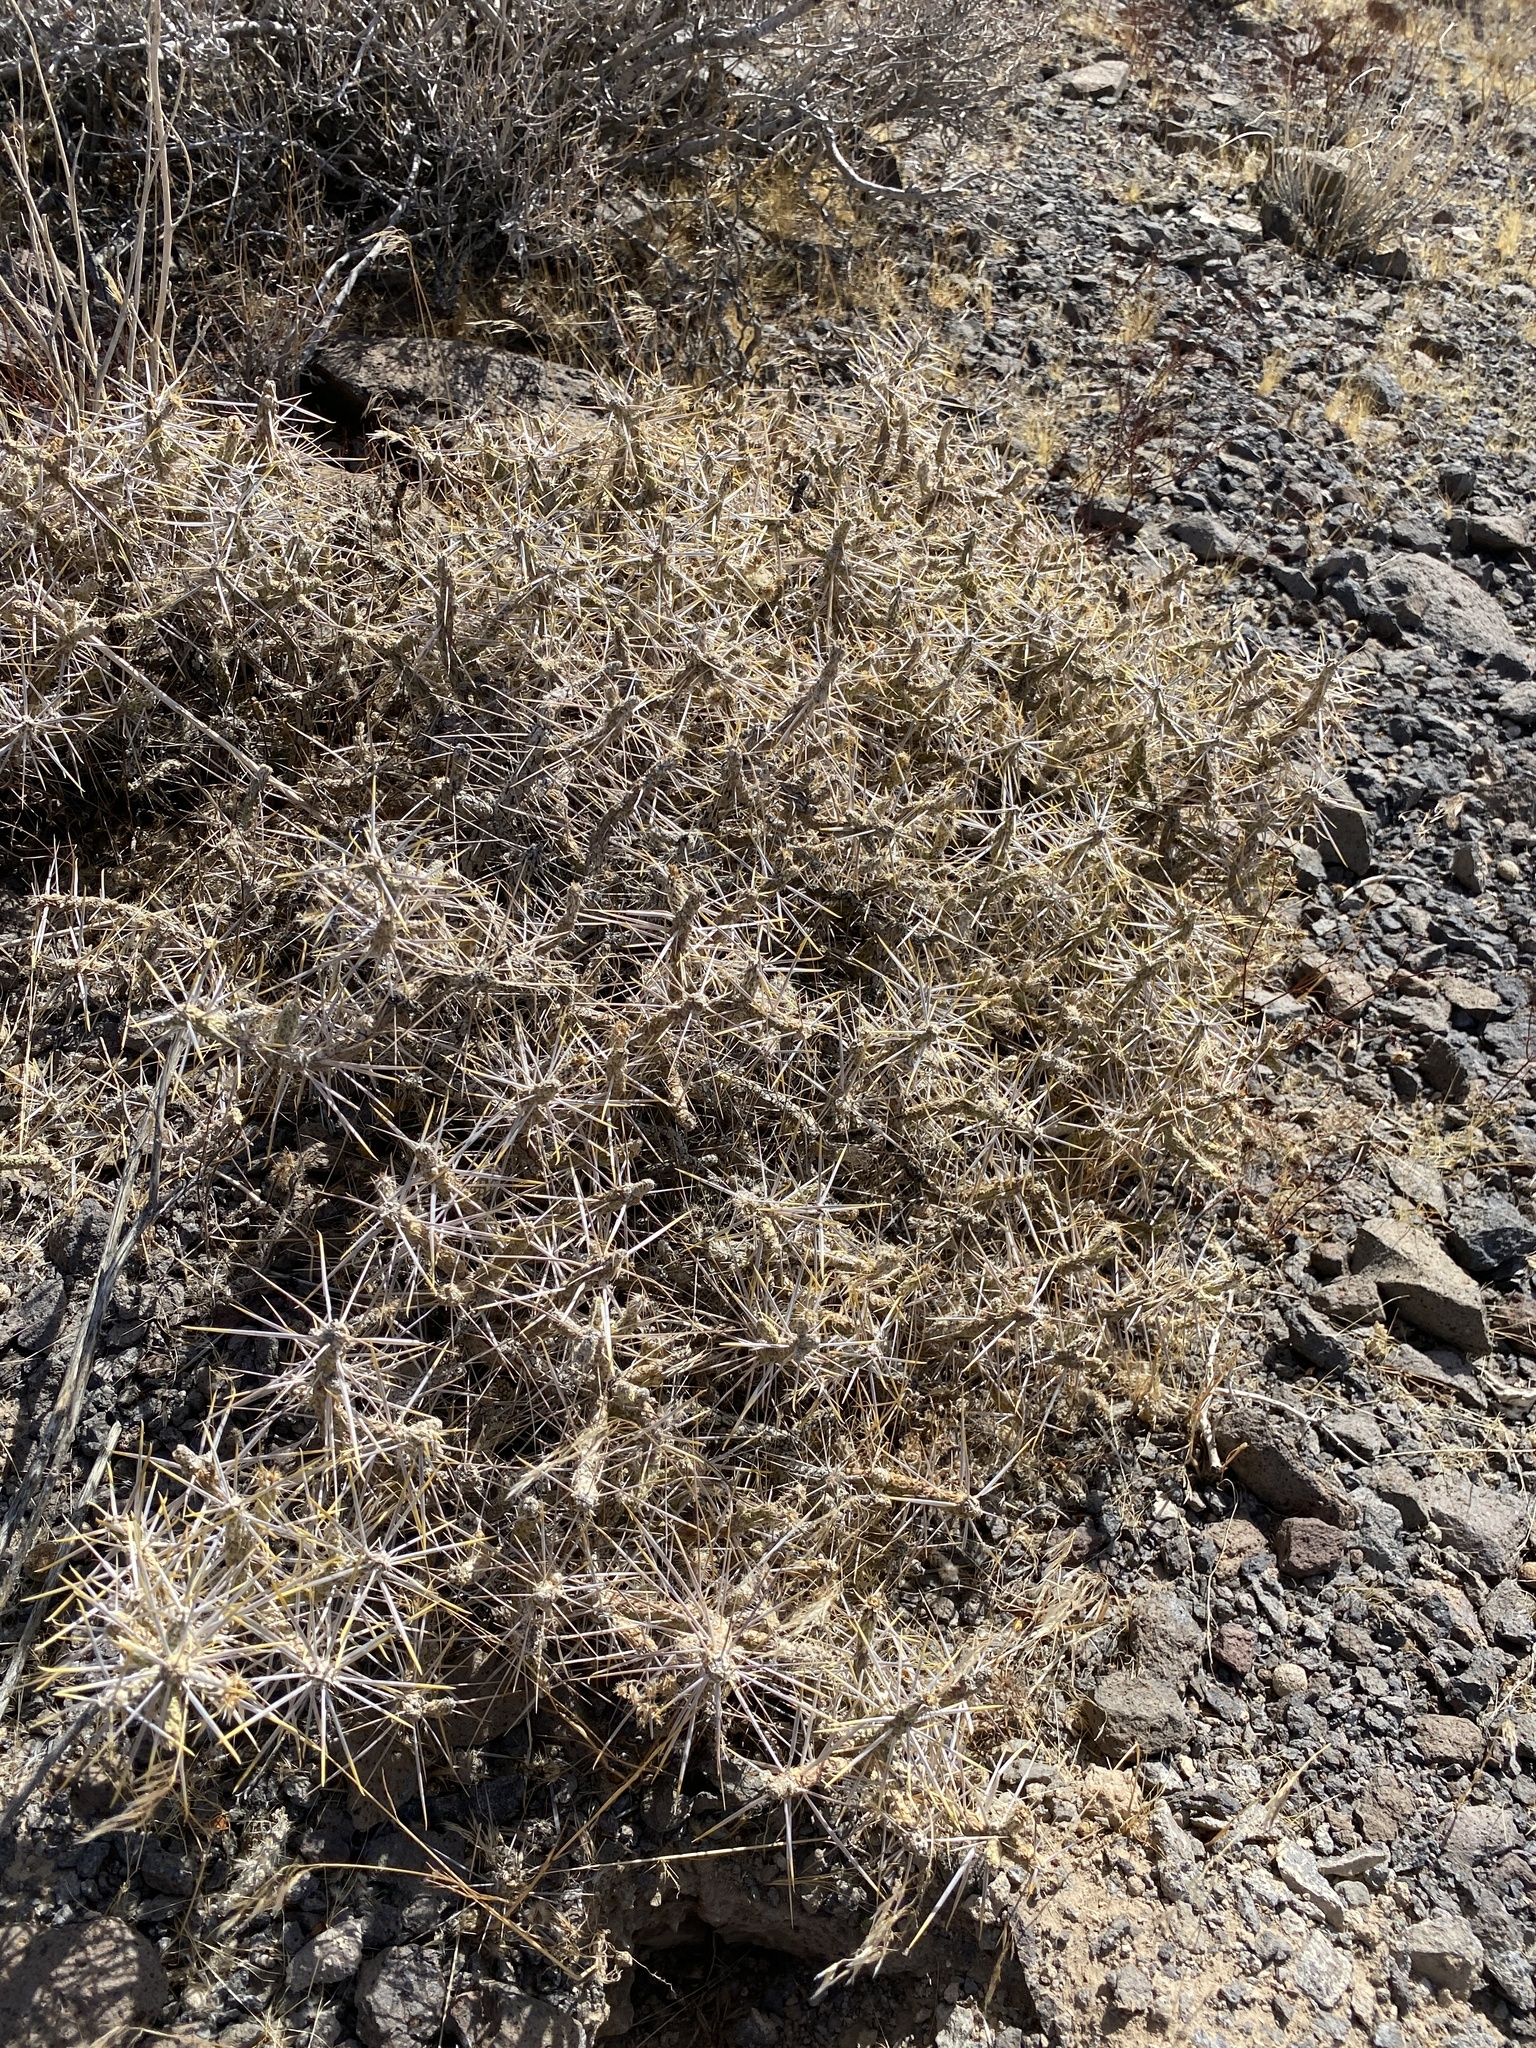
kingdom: Plantae
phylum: Tracheophyta
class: Magnoliopsida
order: Caryophyllales
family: Cactaceae
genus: Cylindropuntia
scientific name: Cylindropuntia ramosissima
